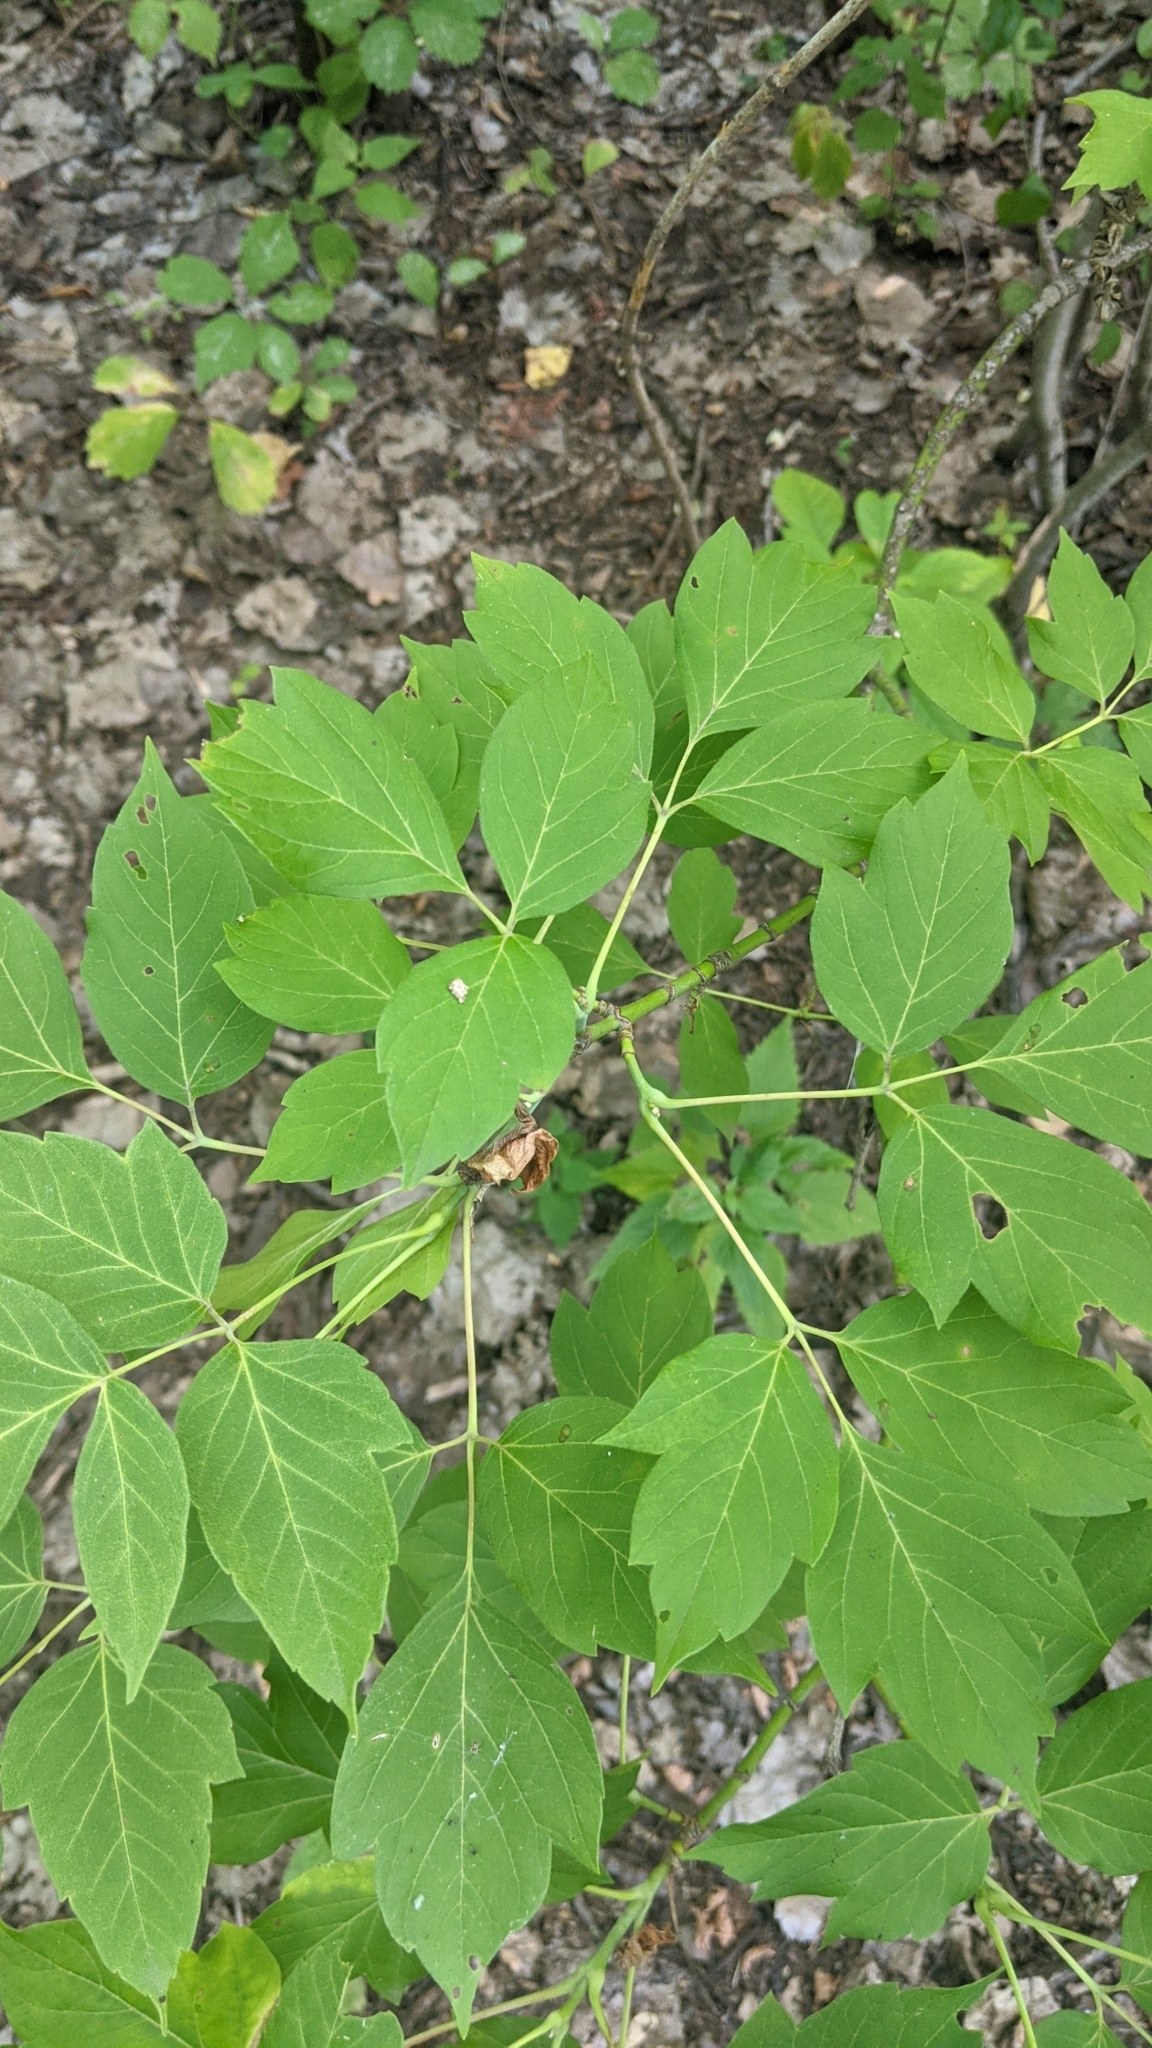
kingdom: Plantae
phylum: Tracheophyta
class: Magnoliopsida
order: Sapindales
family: Sapindaceae
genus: Acer
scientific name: Acer negundo
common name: Ashleaf maple
